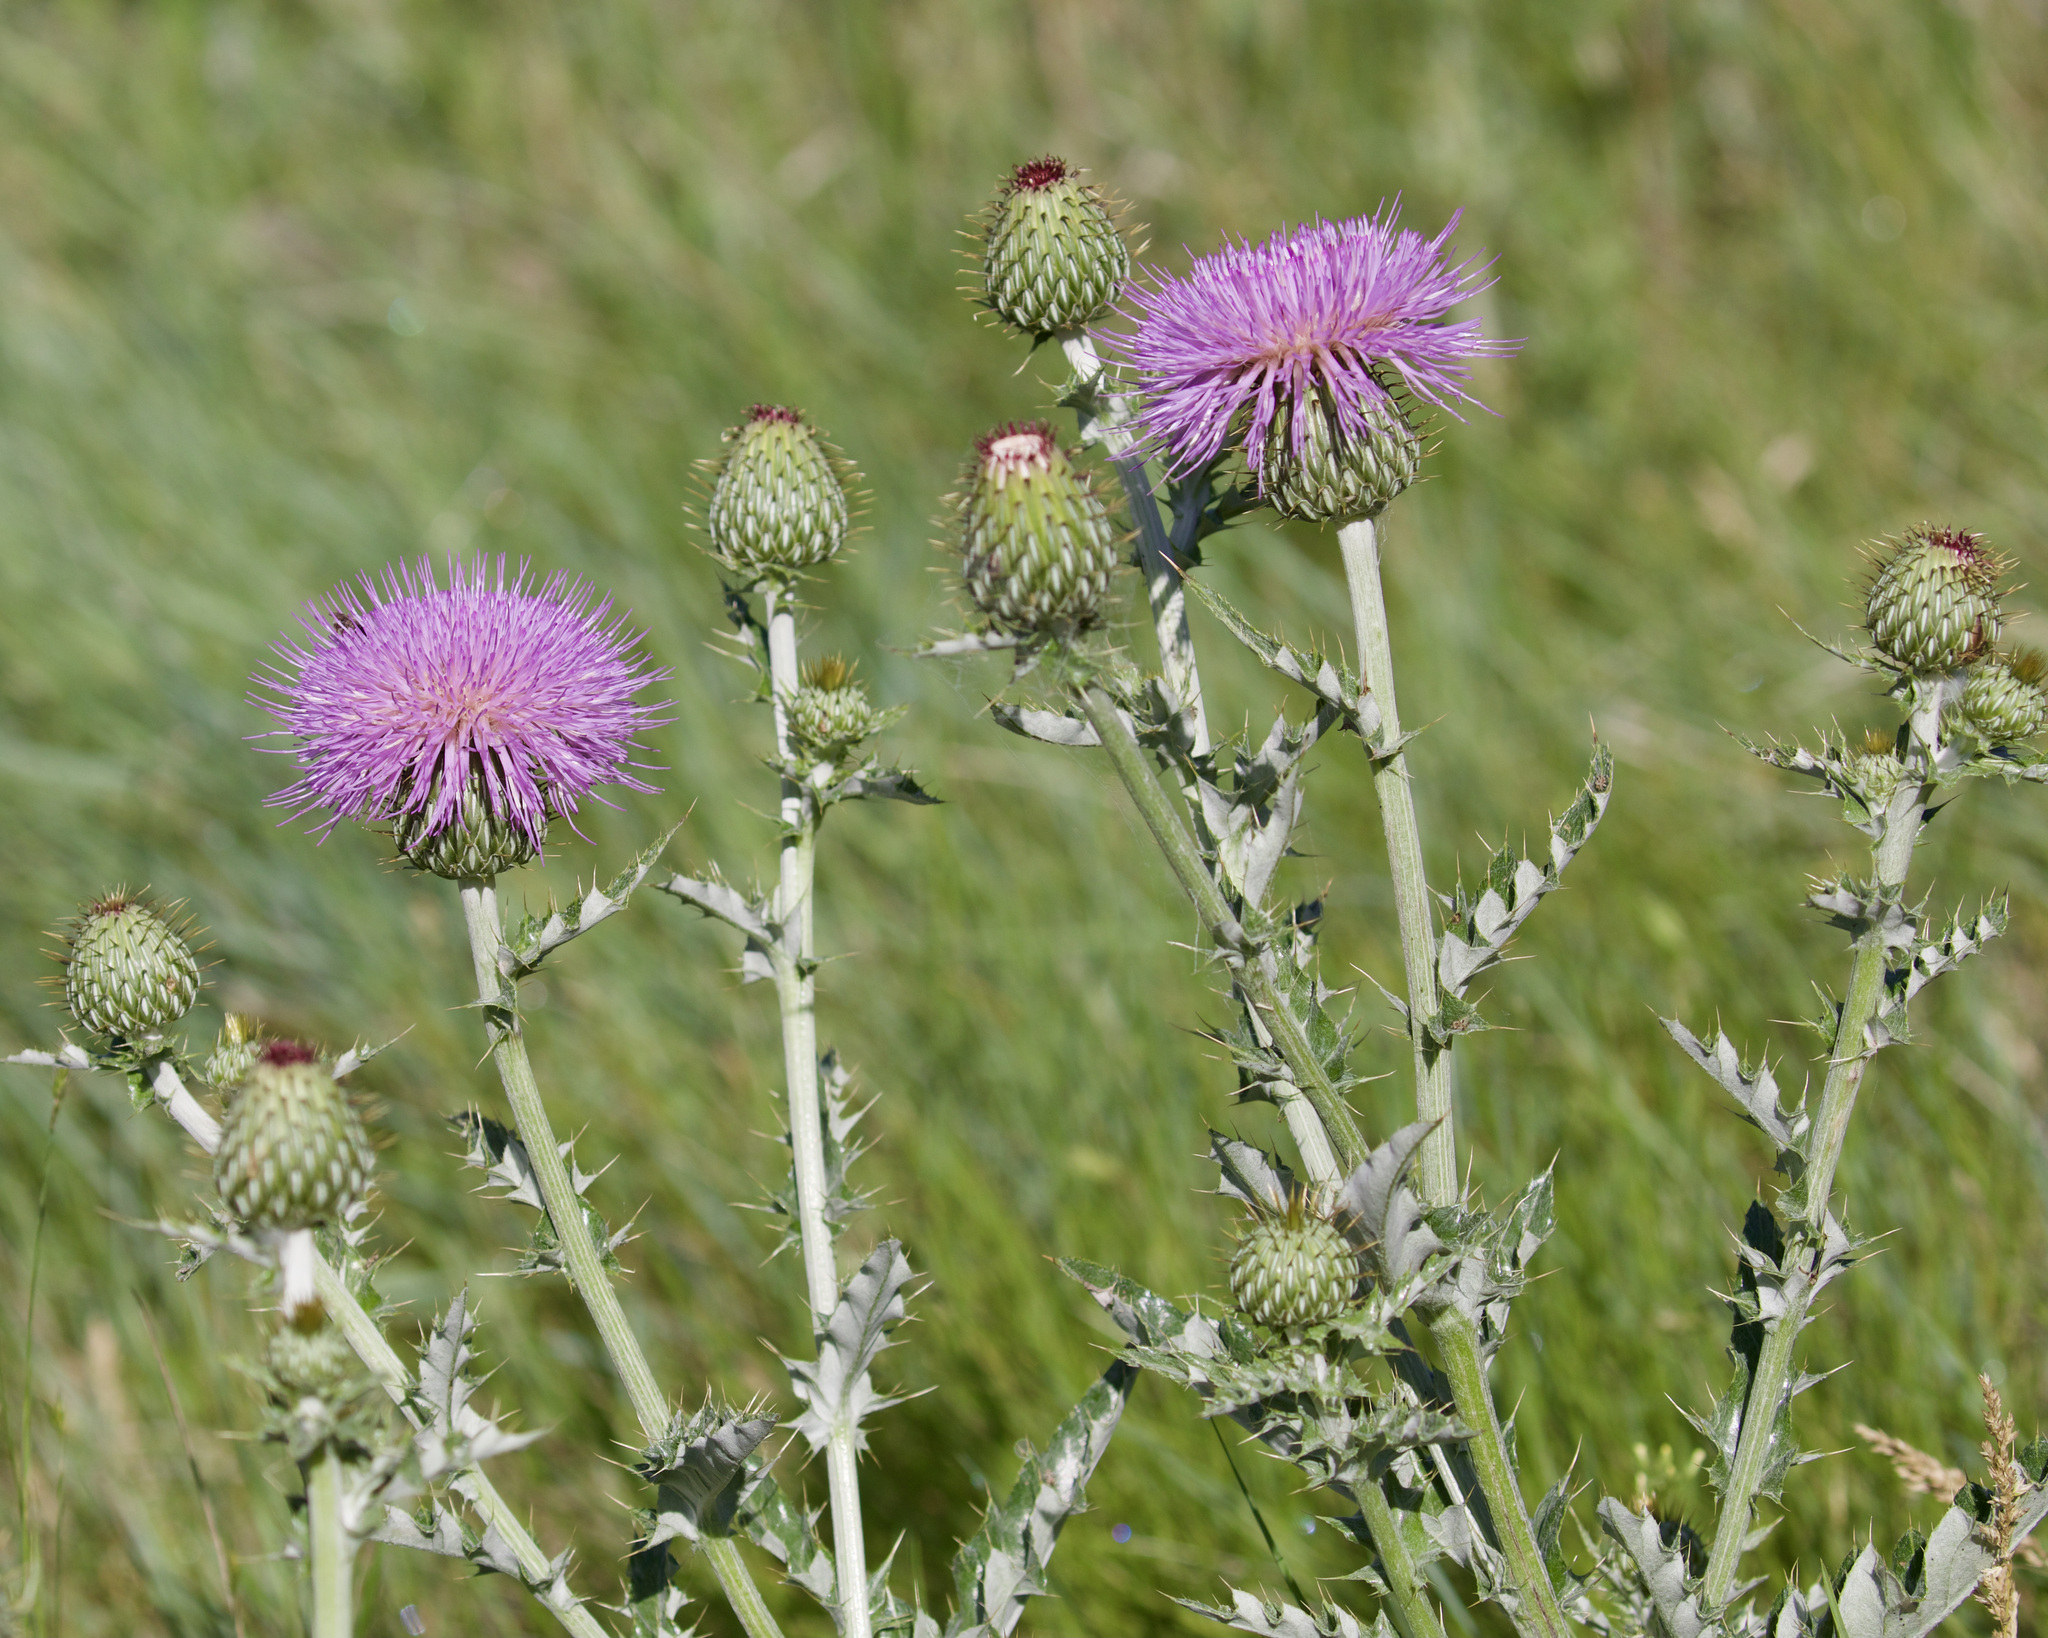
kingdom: Plantae
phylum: Tracheophyta
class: Magnoliopsida
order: Asterales
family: Asteraceae
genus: Cirsium
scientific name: Cirsium undulatum
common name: Pasture thistle
